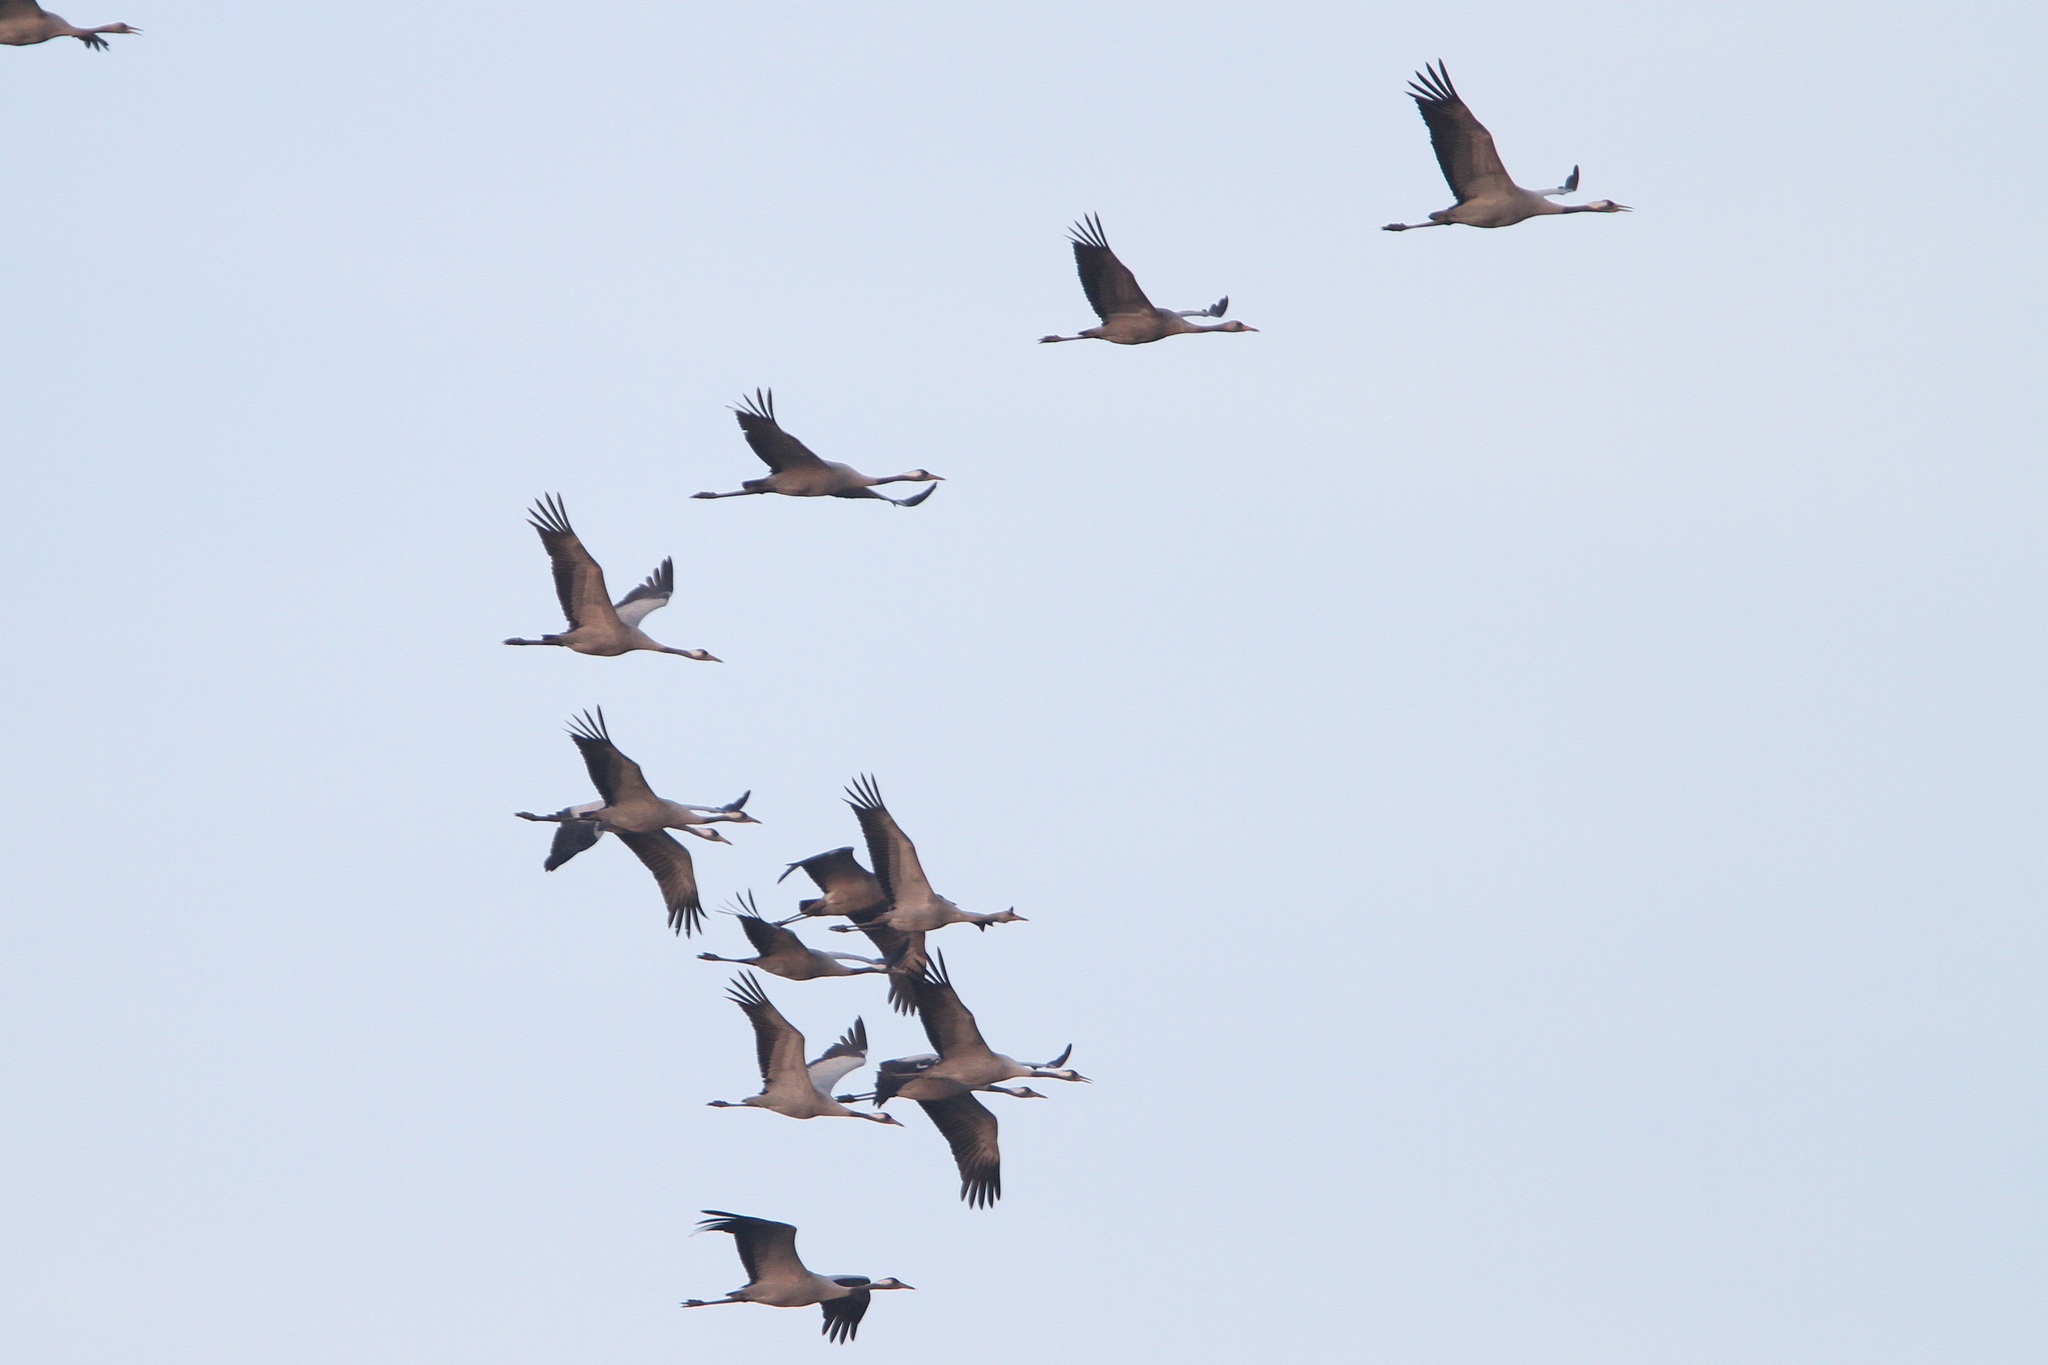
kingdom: Animalia
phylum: Chordata
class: Aves
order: Gruiformes
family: Gruidae
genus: Grus
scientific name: Grus grus
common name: Common crane
